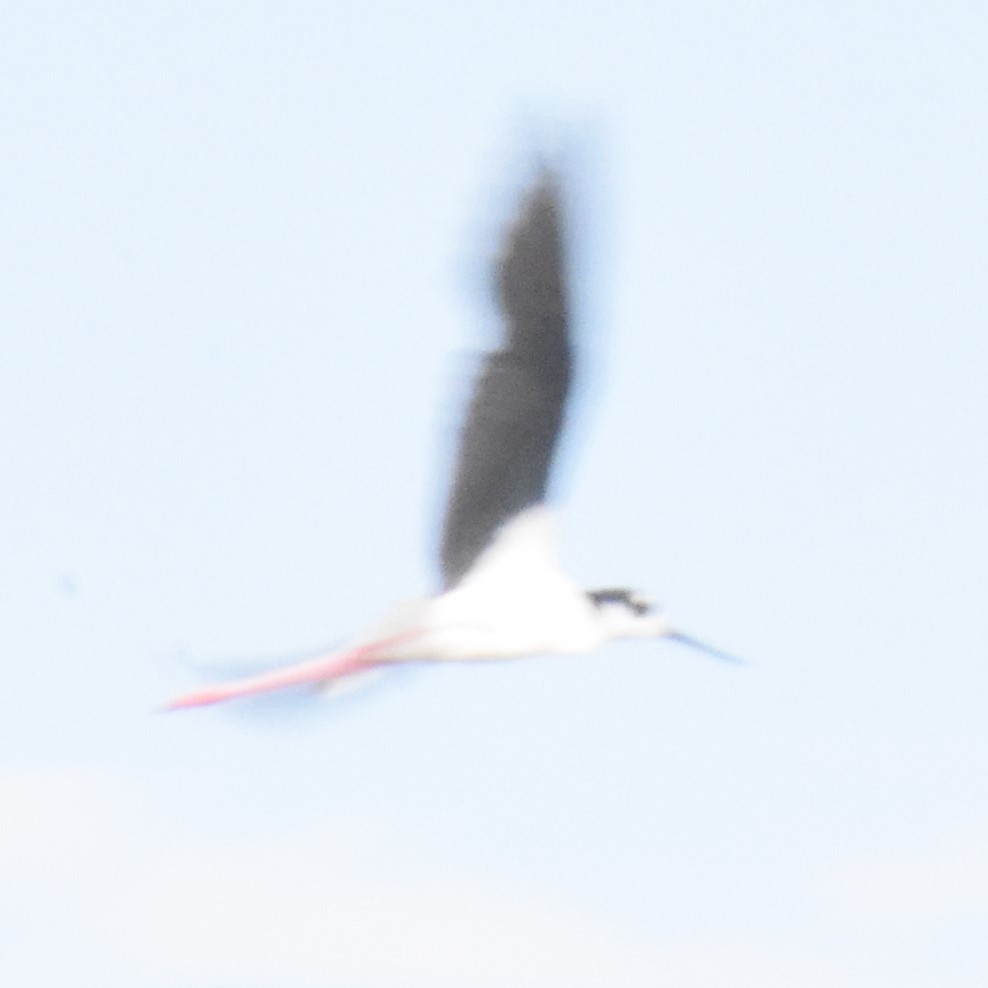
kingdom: Animalia
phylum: Chordata
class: Aves
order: Charadriiformes
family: Recurvirostridae
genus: Himantopus
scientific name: Himantopus mexicanus
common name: Black-necked stilt
